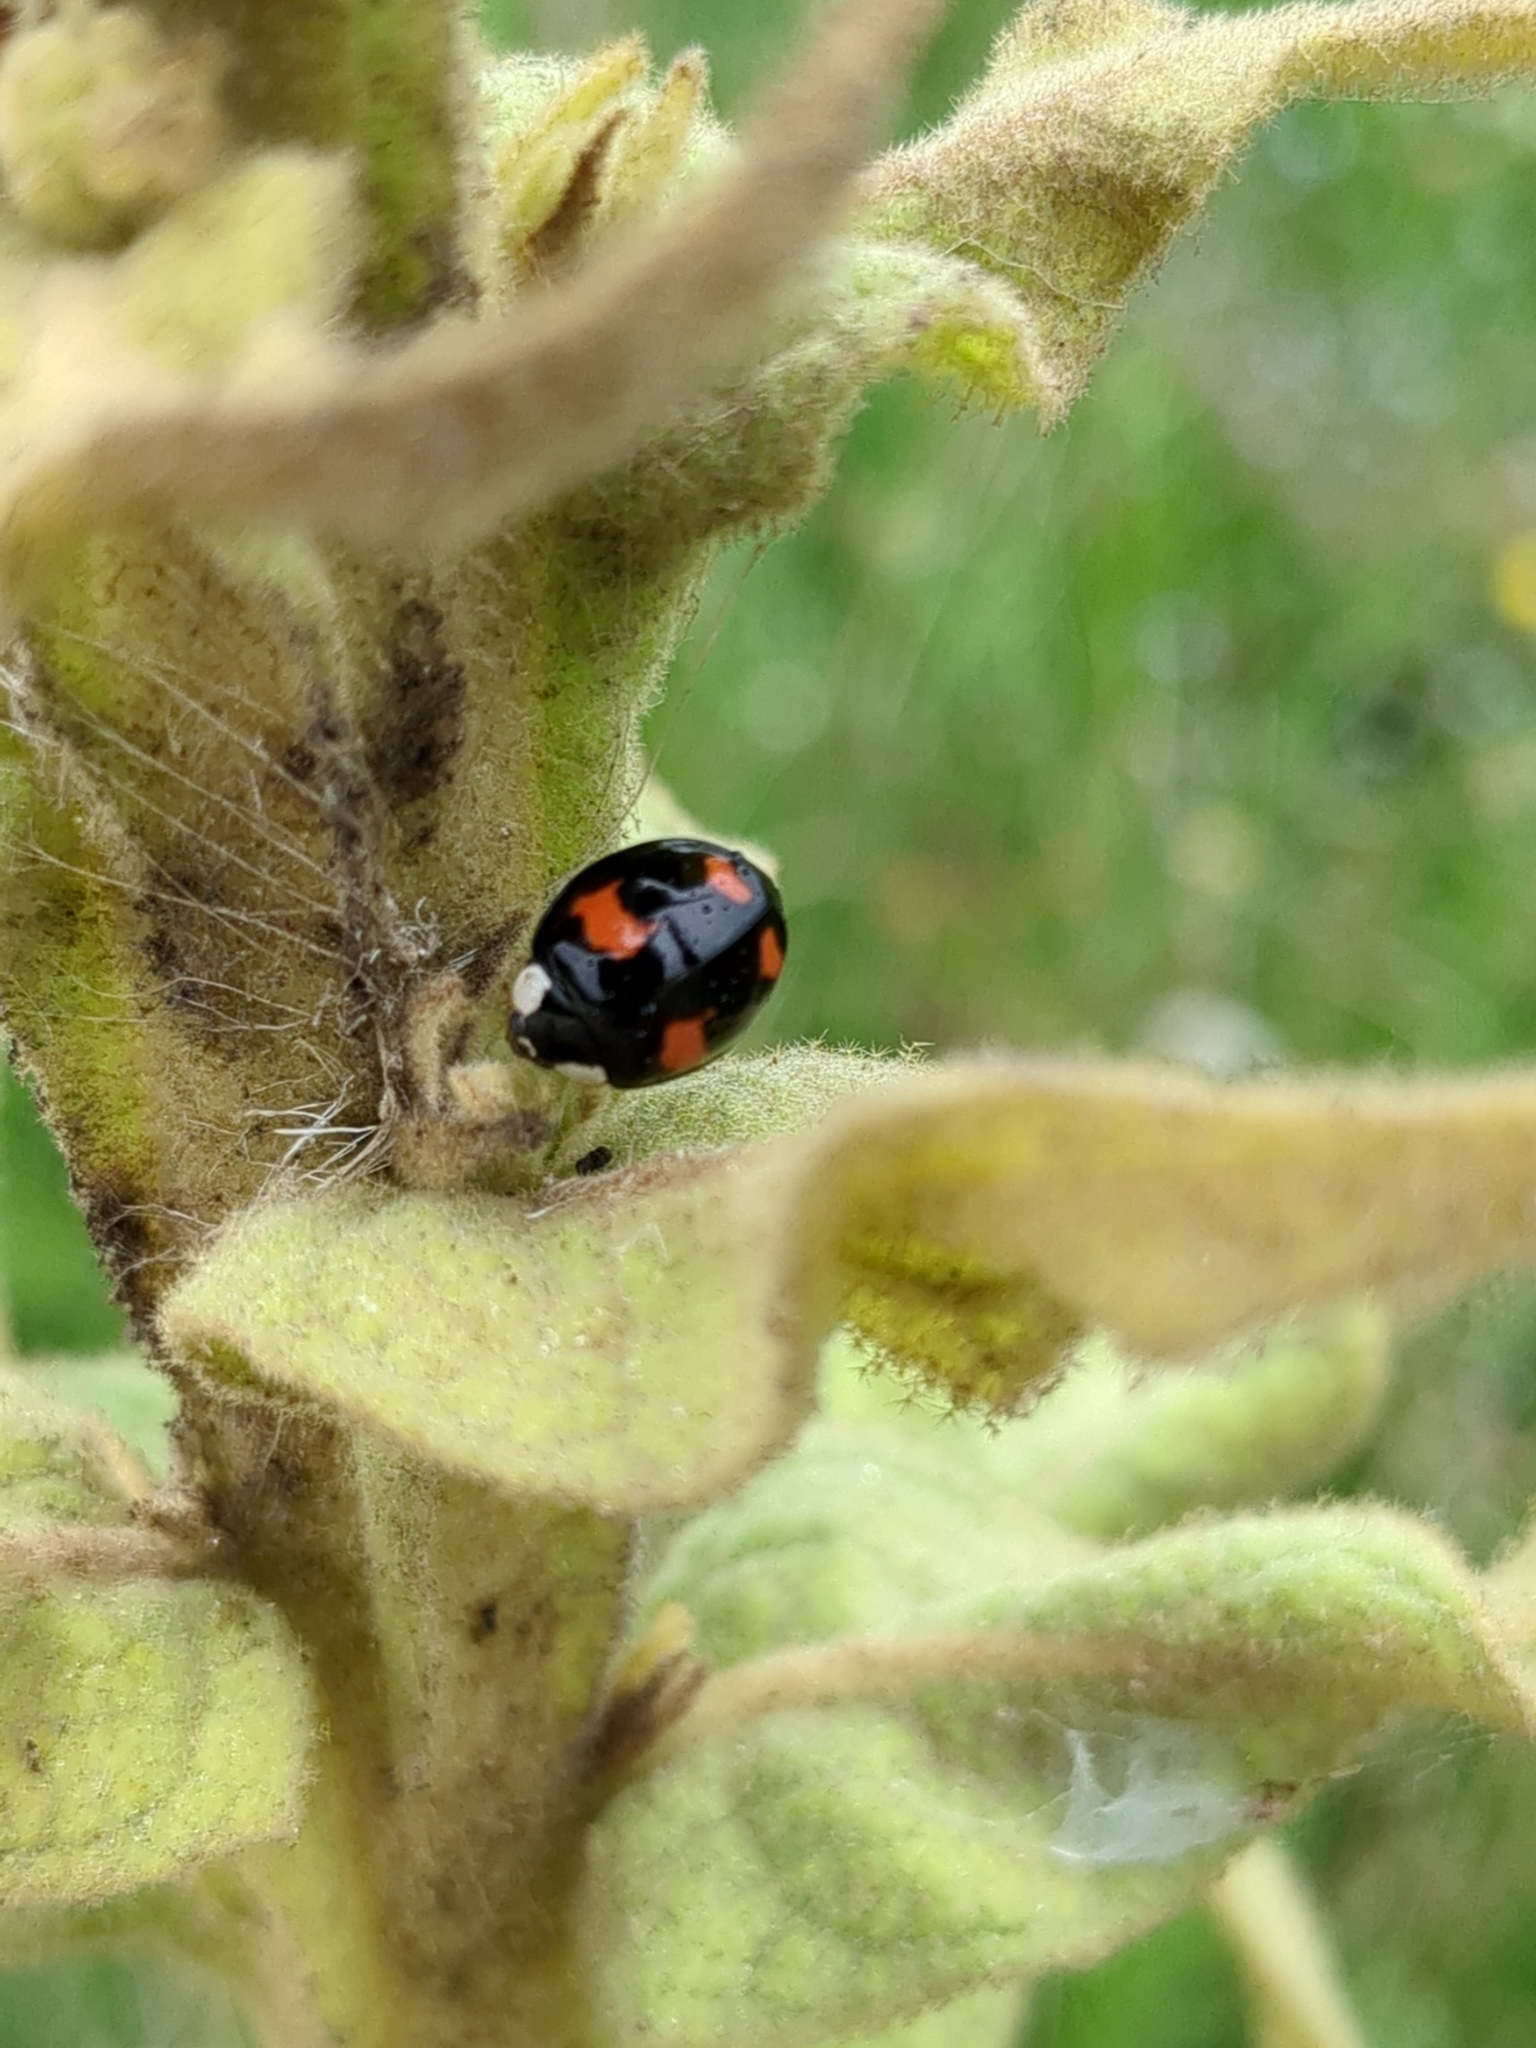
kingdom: Animalia
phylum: Arthropoda
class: Insecta
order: Coleoptera
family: Coccinellidae
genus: Harmonia
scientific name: Harmonia axyridis
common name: Harlequin ladybird
